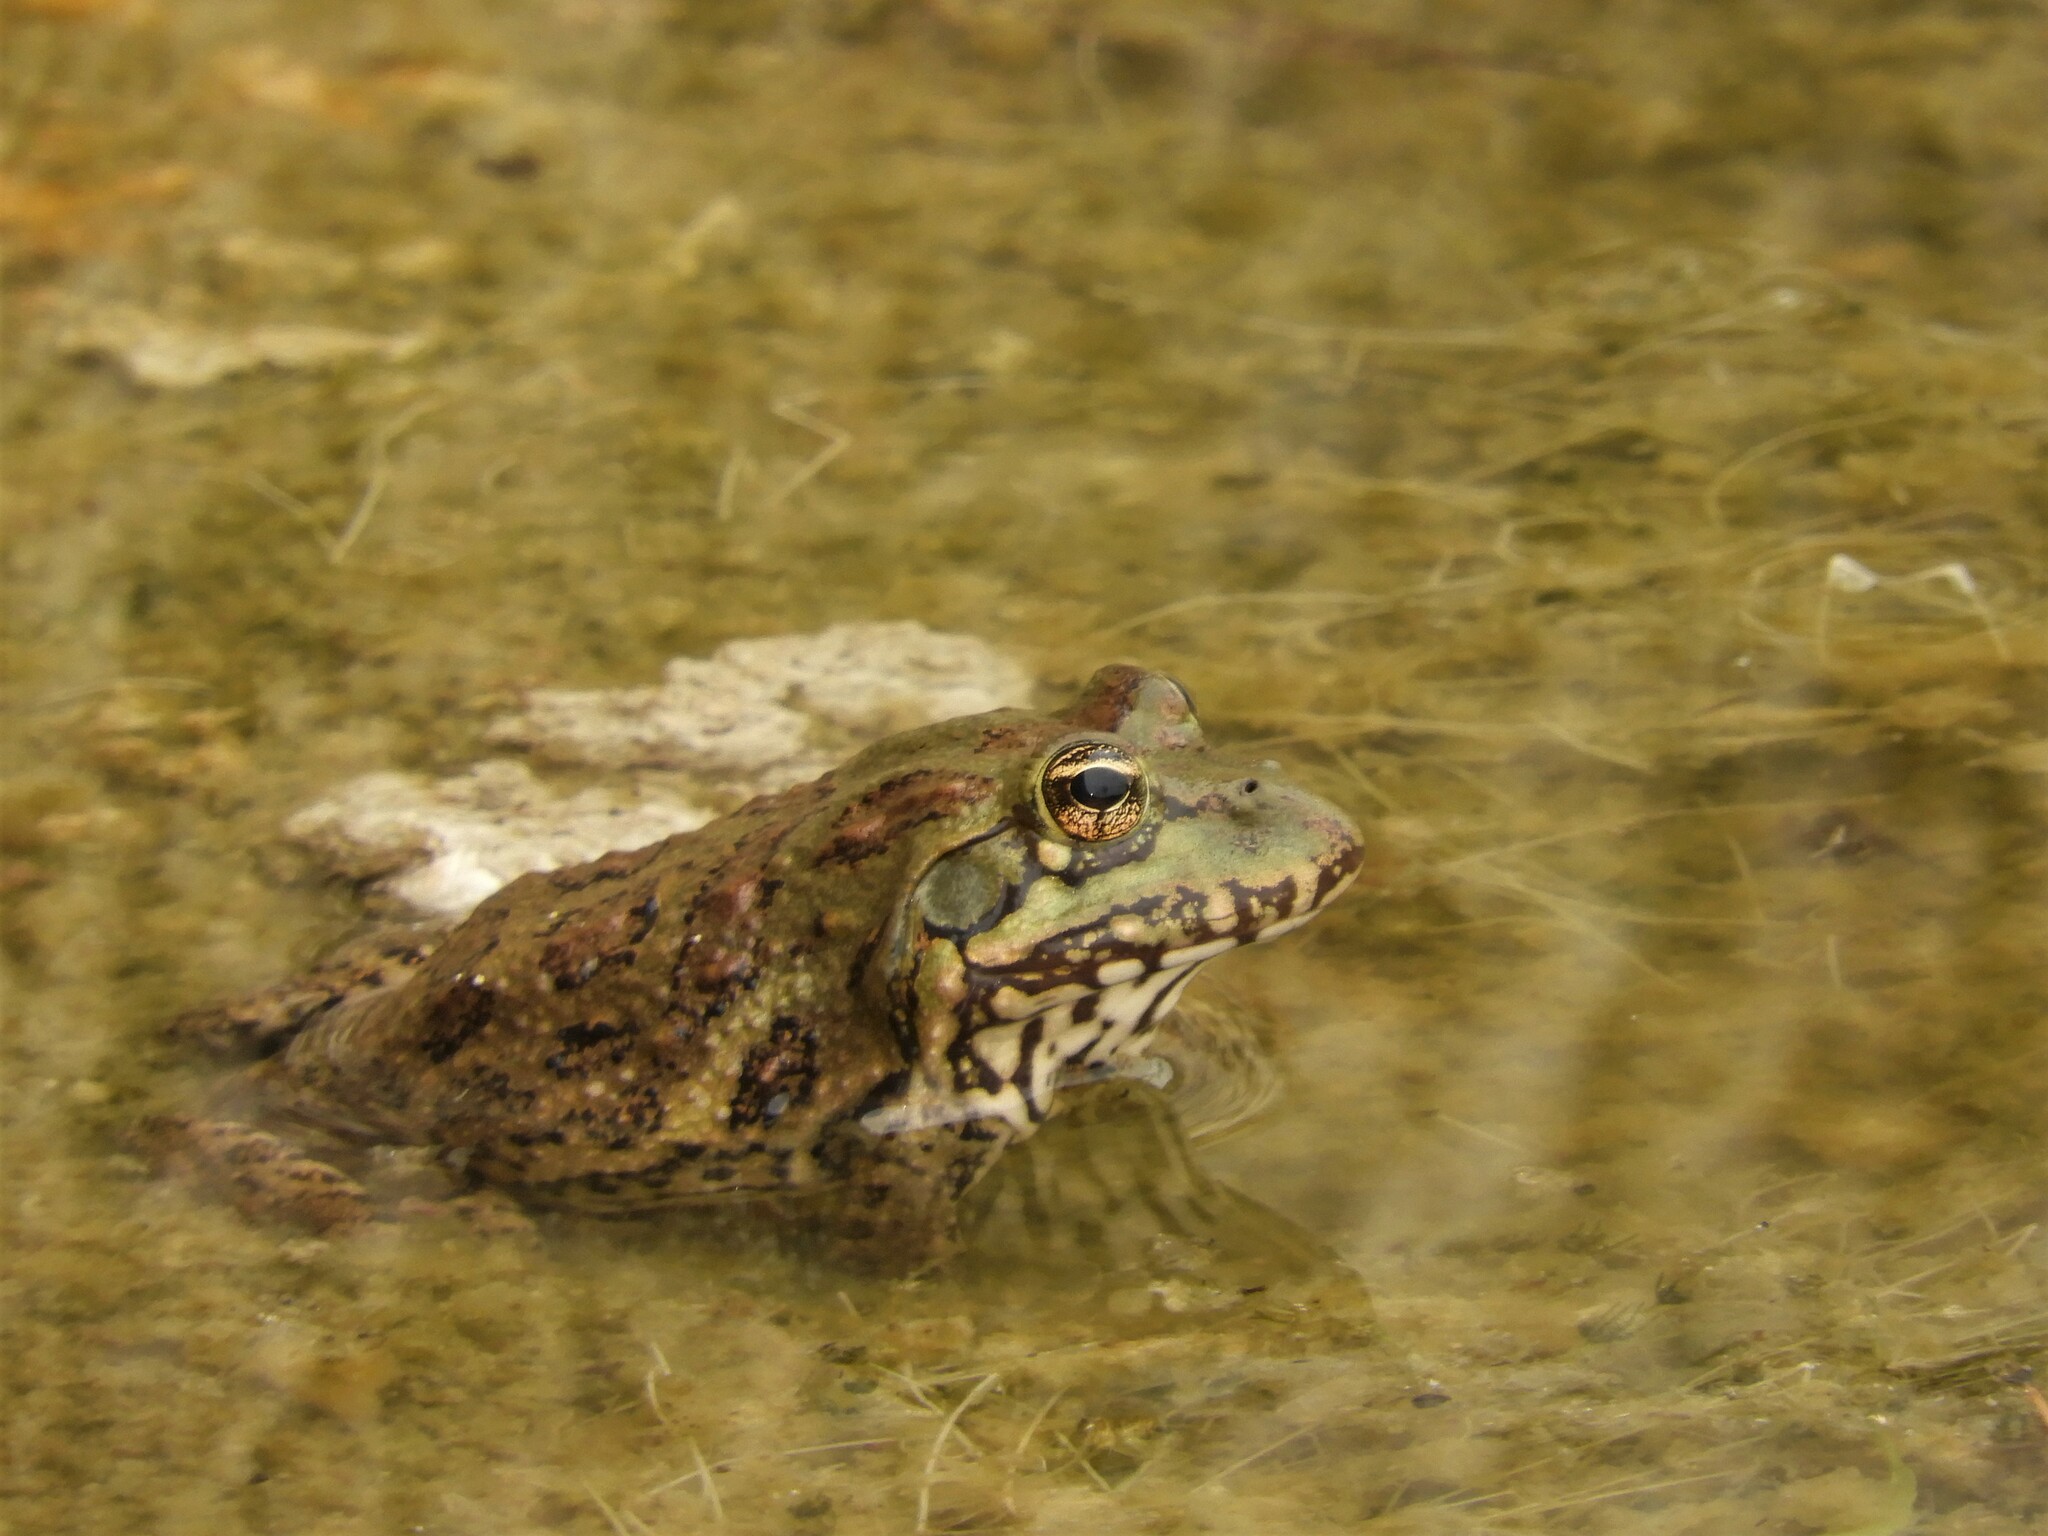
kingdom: Animalia
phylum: Chordata
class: Amphibia
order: Anura
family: Pyxicephalidae
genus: Amietia
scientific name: Amietia poyntoni
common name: Poynton's river frog
